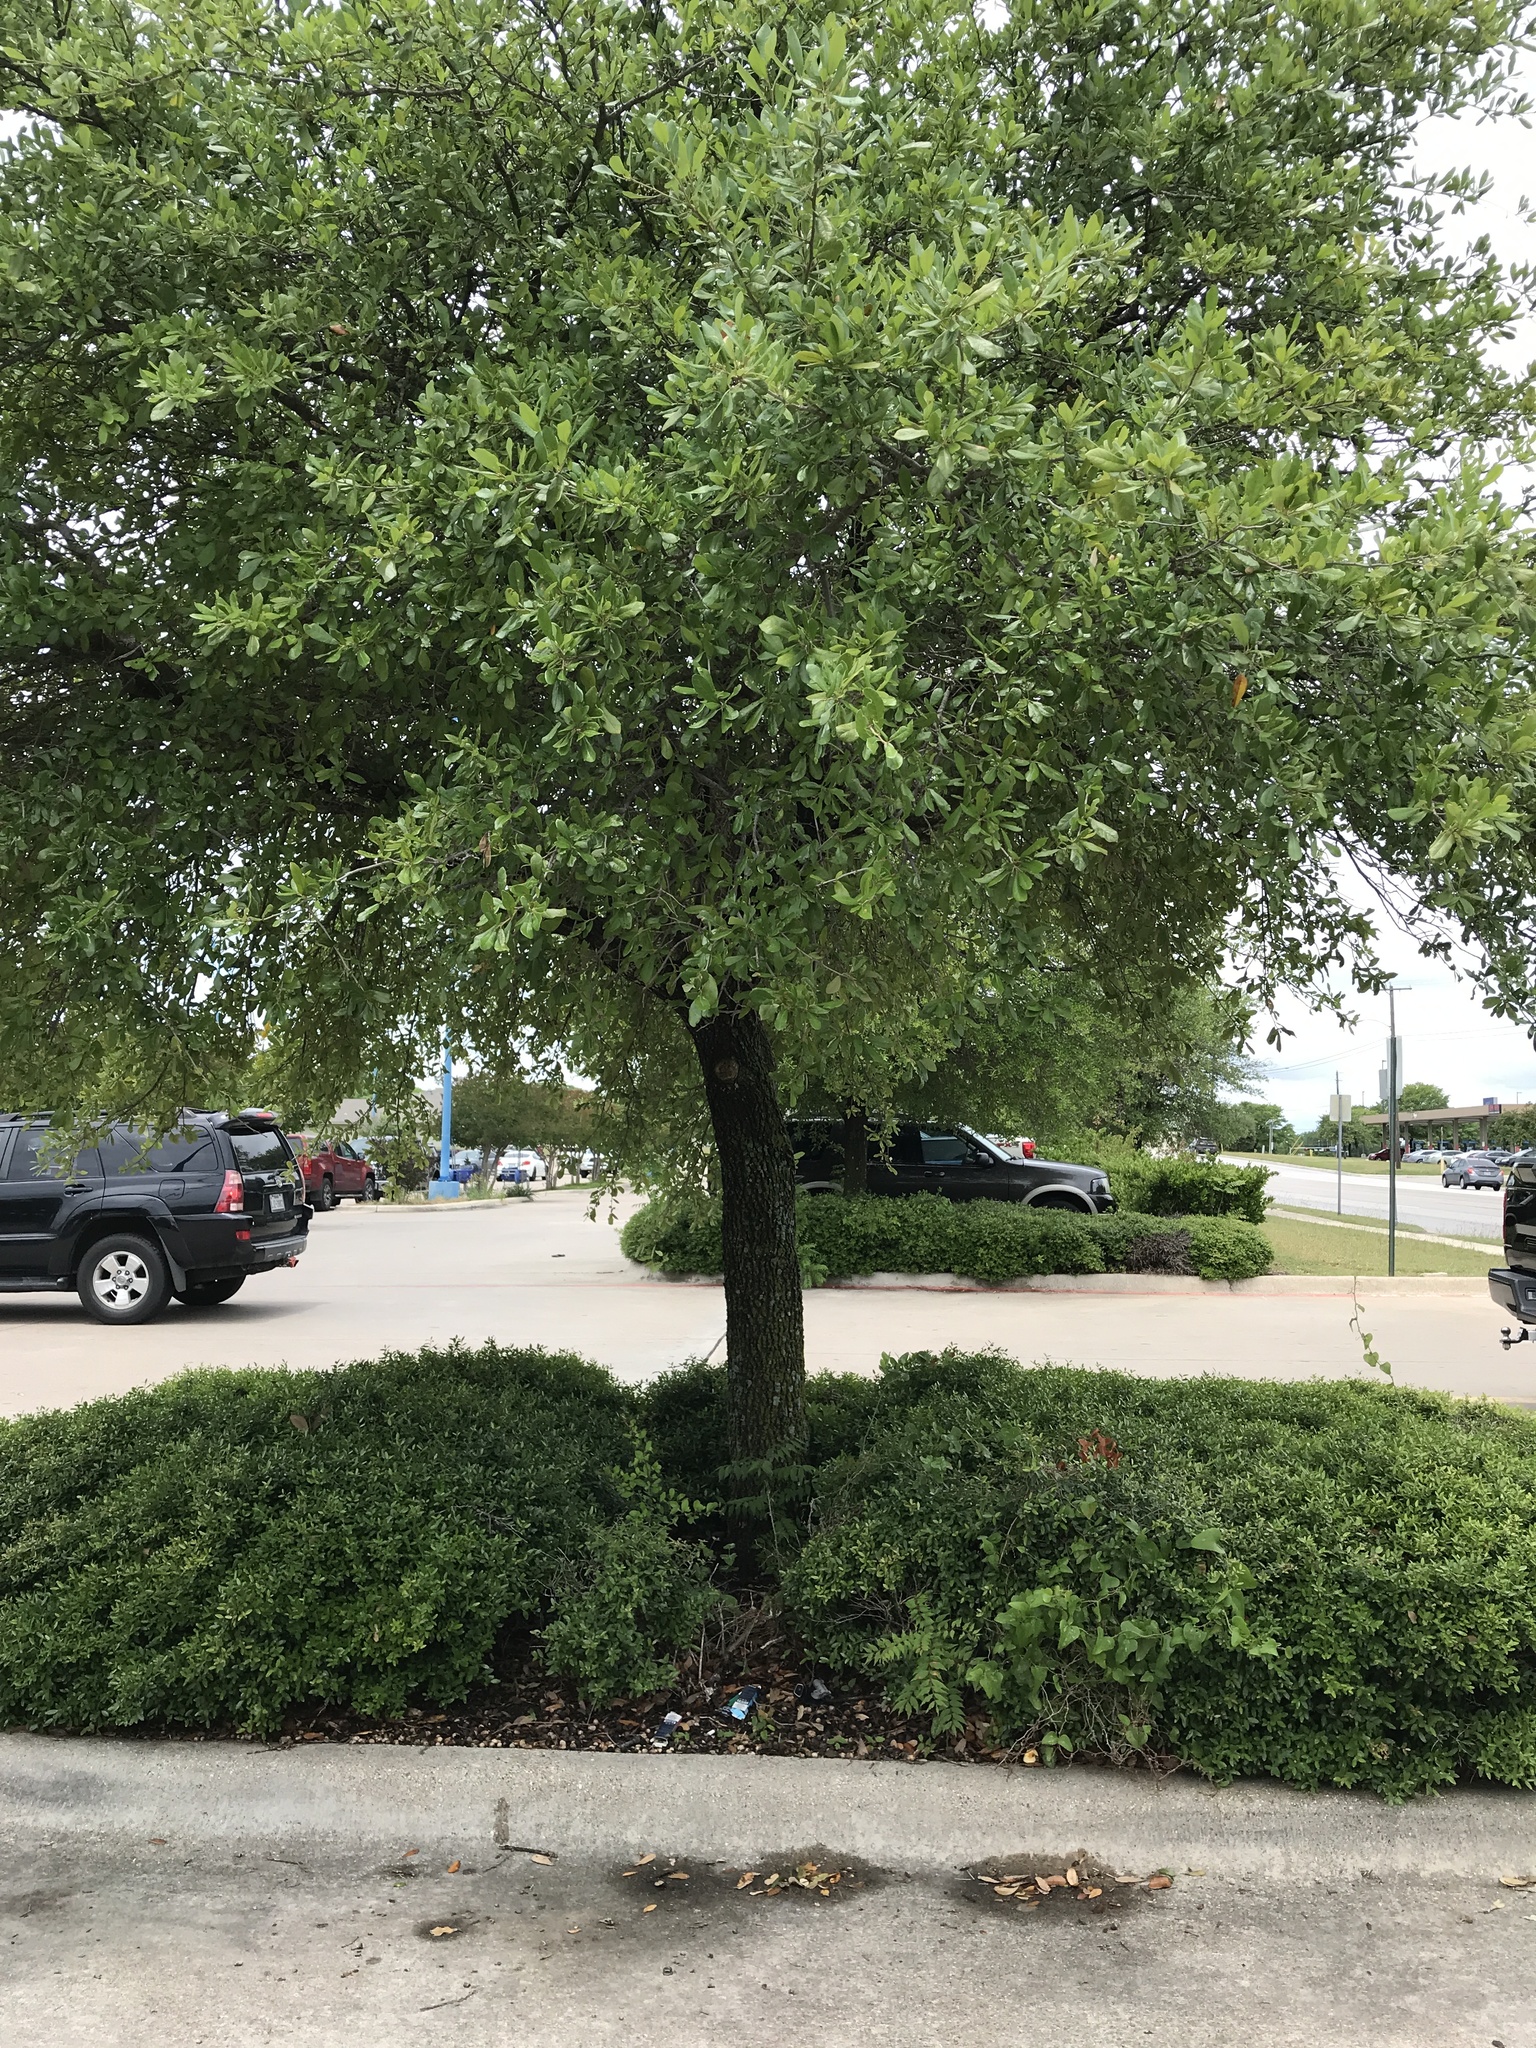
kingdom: Plantae
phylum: Tracheophyta
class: Magnoliopsida
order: Sapindales
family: Anacardiaceae
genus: Pistacia
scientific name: Pistacia chinensis
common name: Chinese pistache
